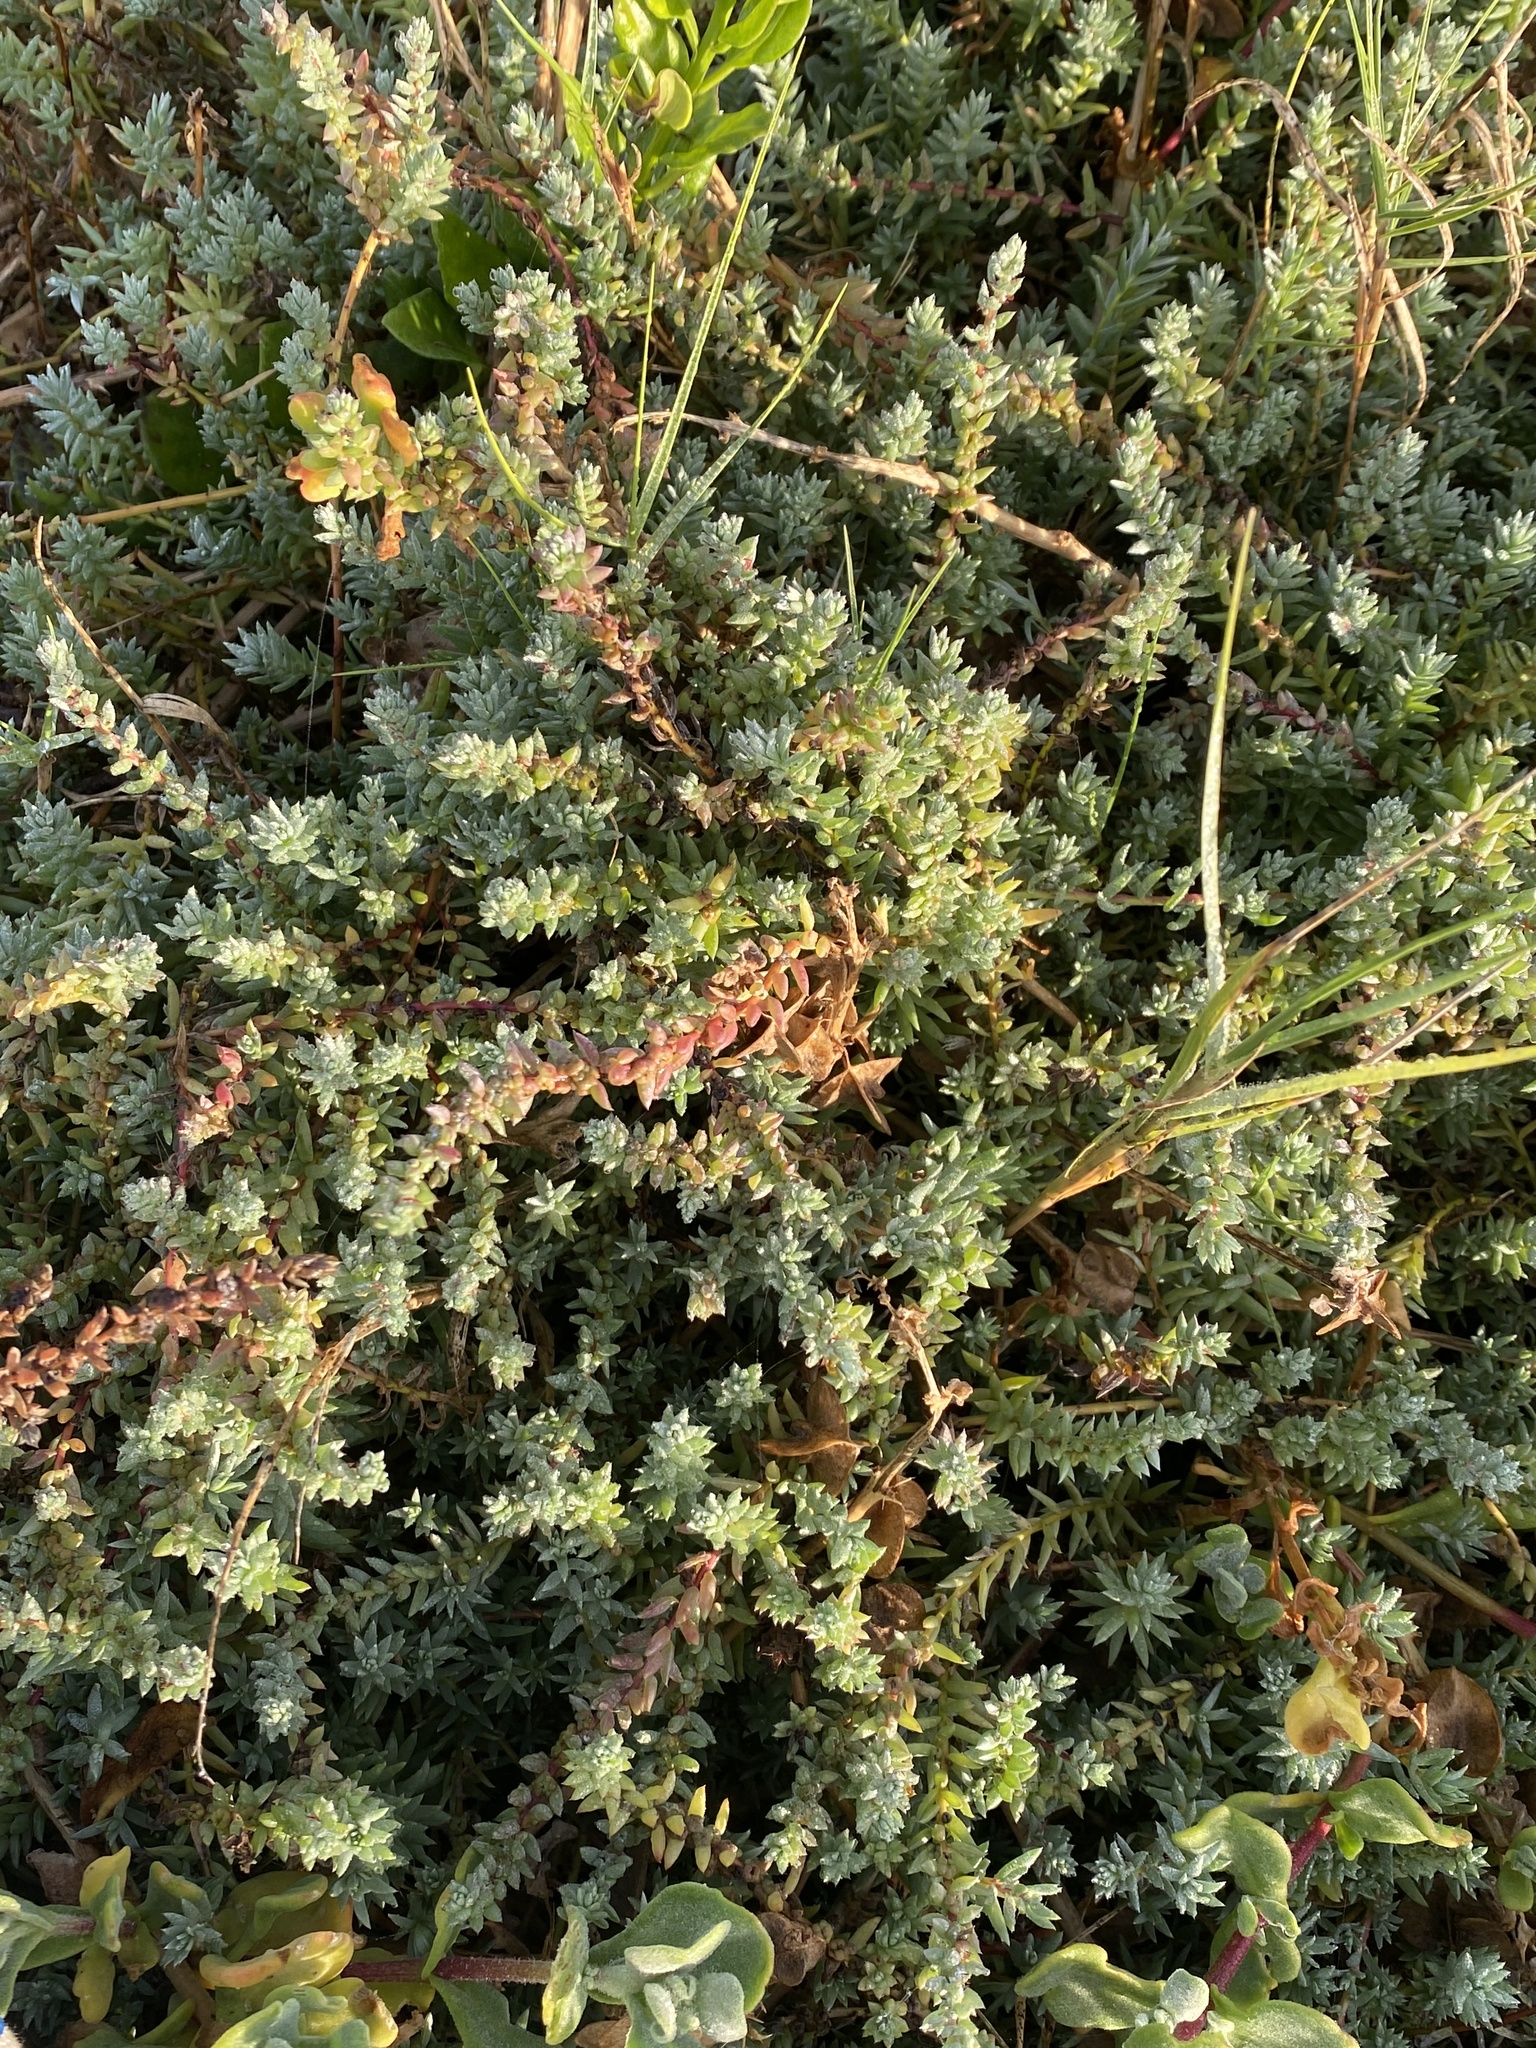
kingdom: Plantae
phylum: Tracheophyta
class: Magnoliopsida
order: Caryophyllales
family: Amaranthaceae
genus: Chenolea
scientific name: Chenolea diffusa
